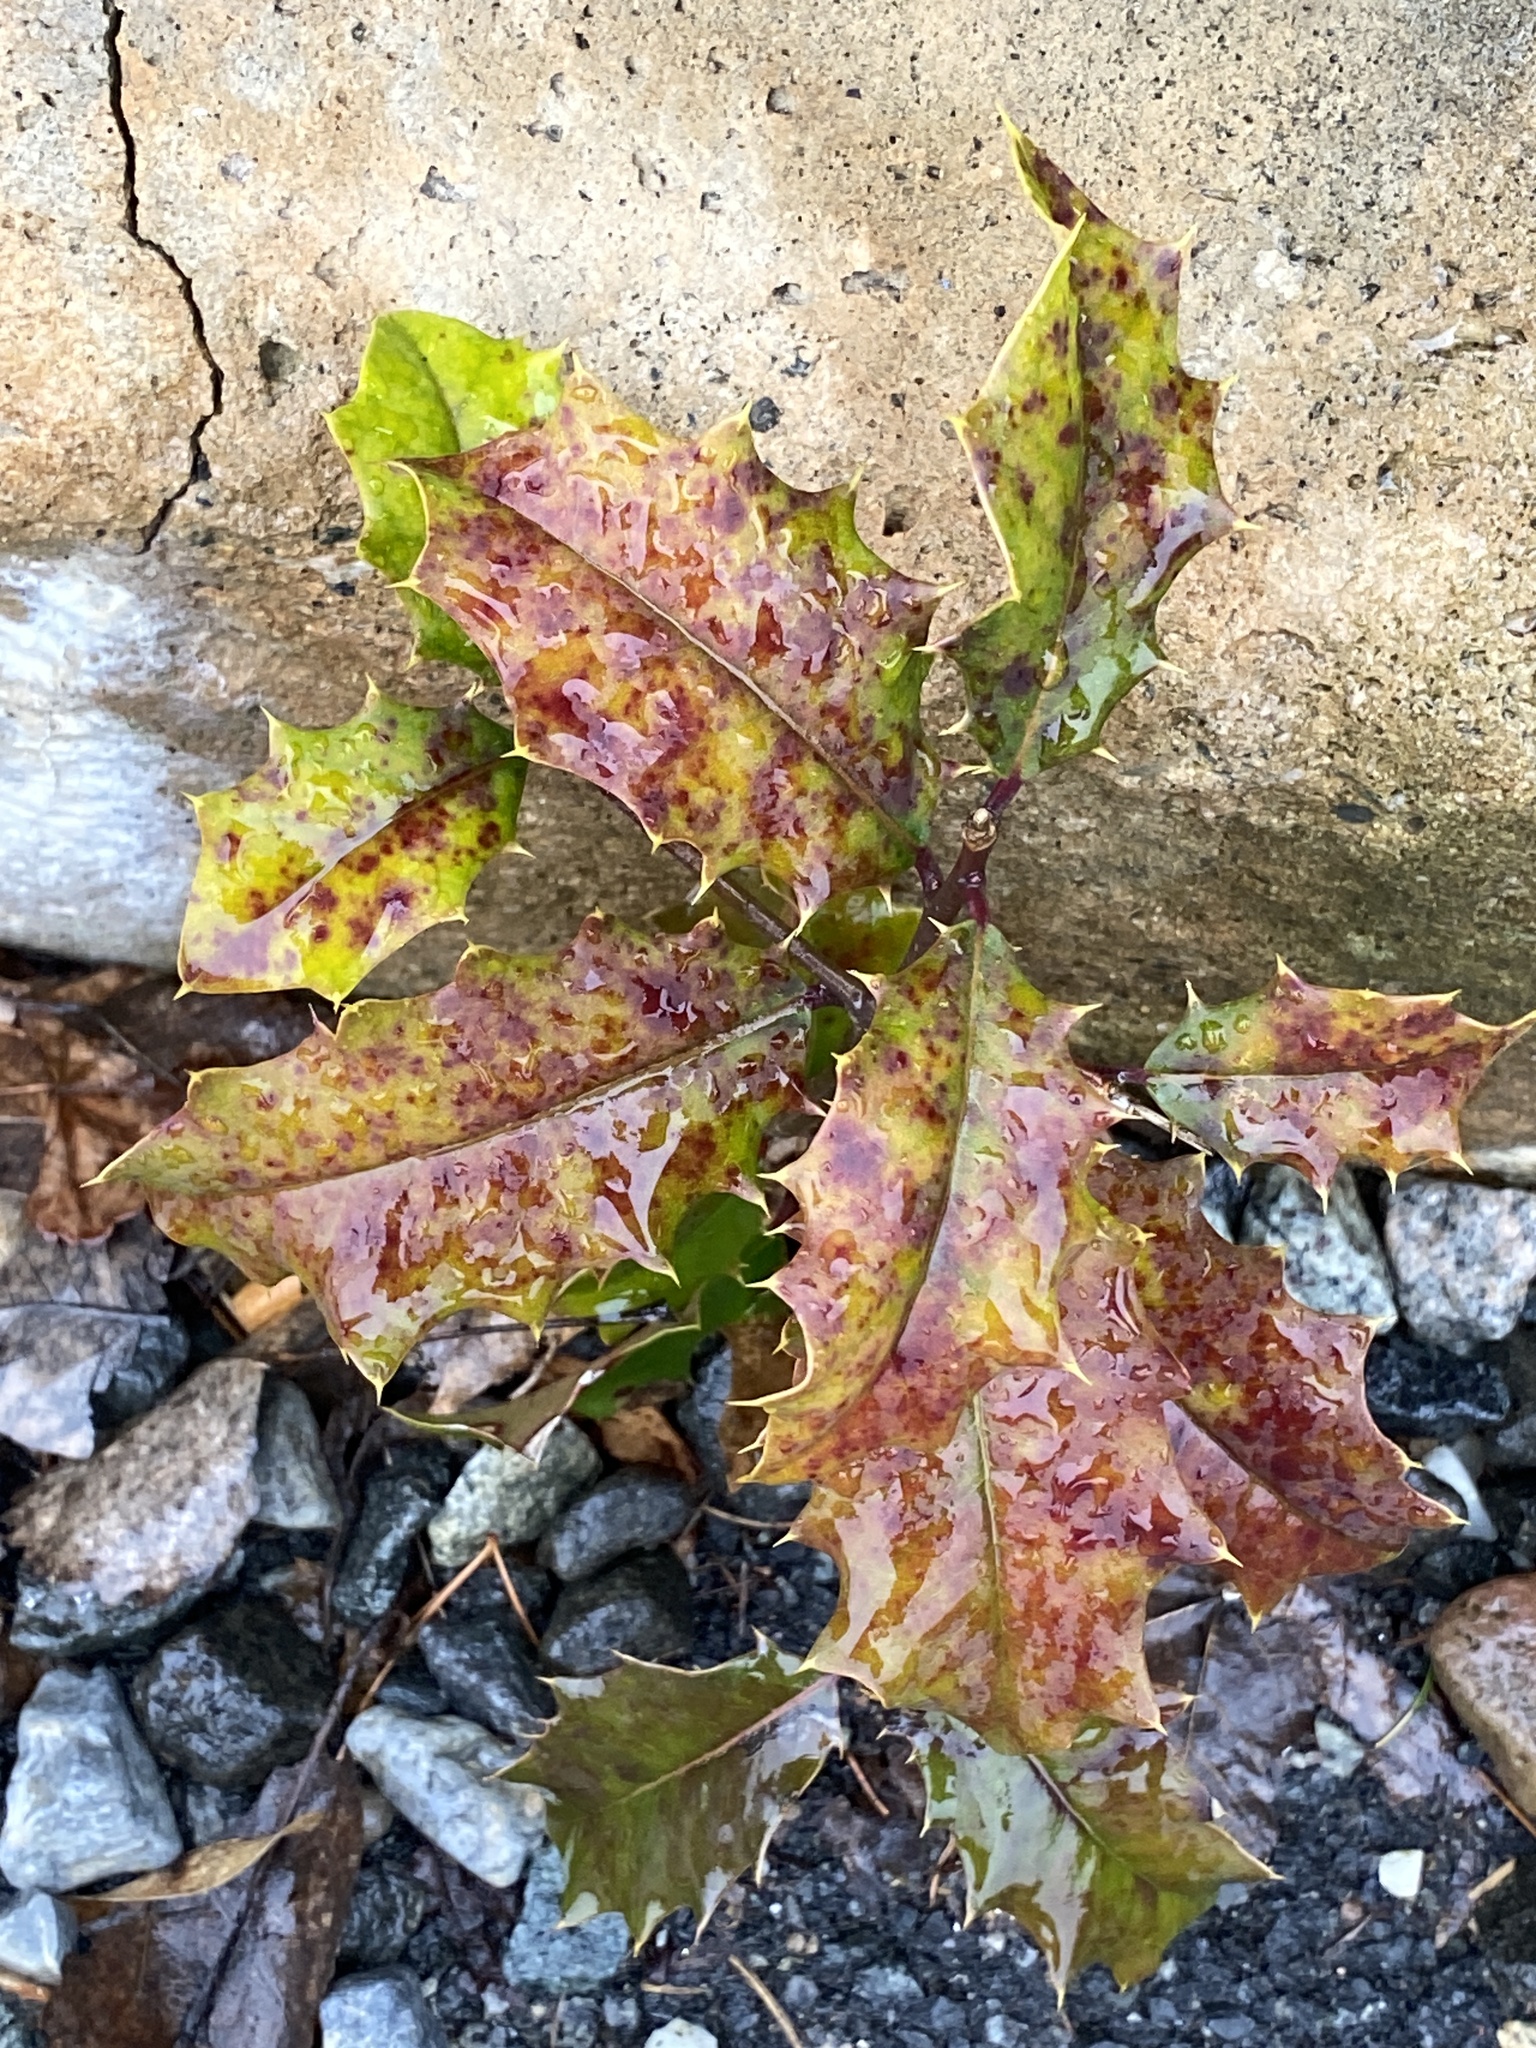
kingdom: Plantae
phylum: Tracheophyta
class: Magnoliopsida
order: Aquifoliales
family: Aquifoliaceae
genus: Ilex
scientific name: Ilex opaca
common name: American holly
